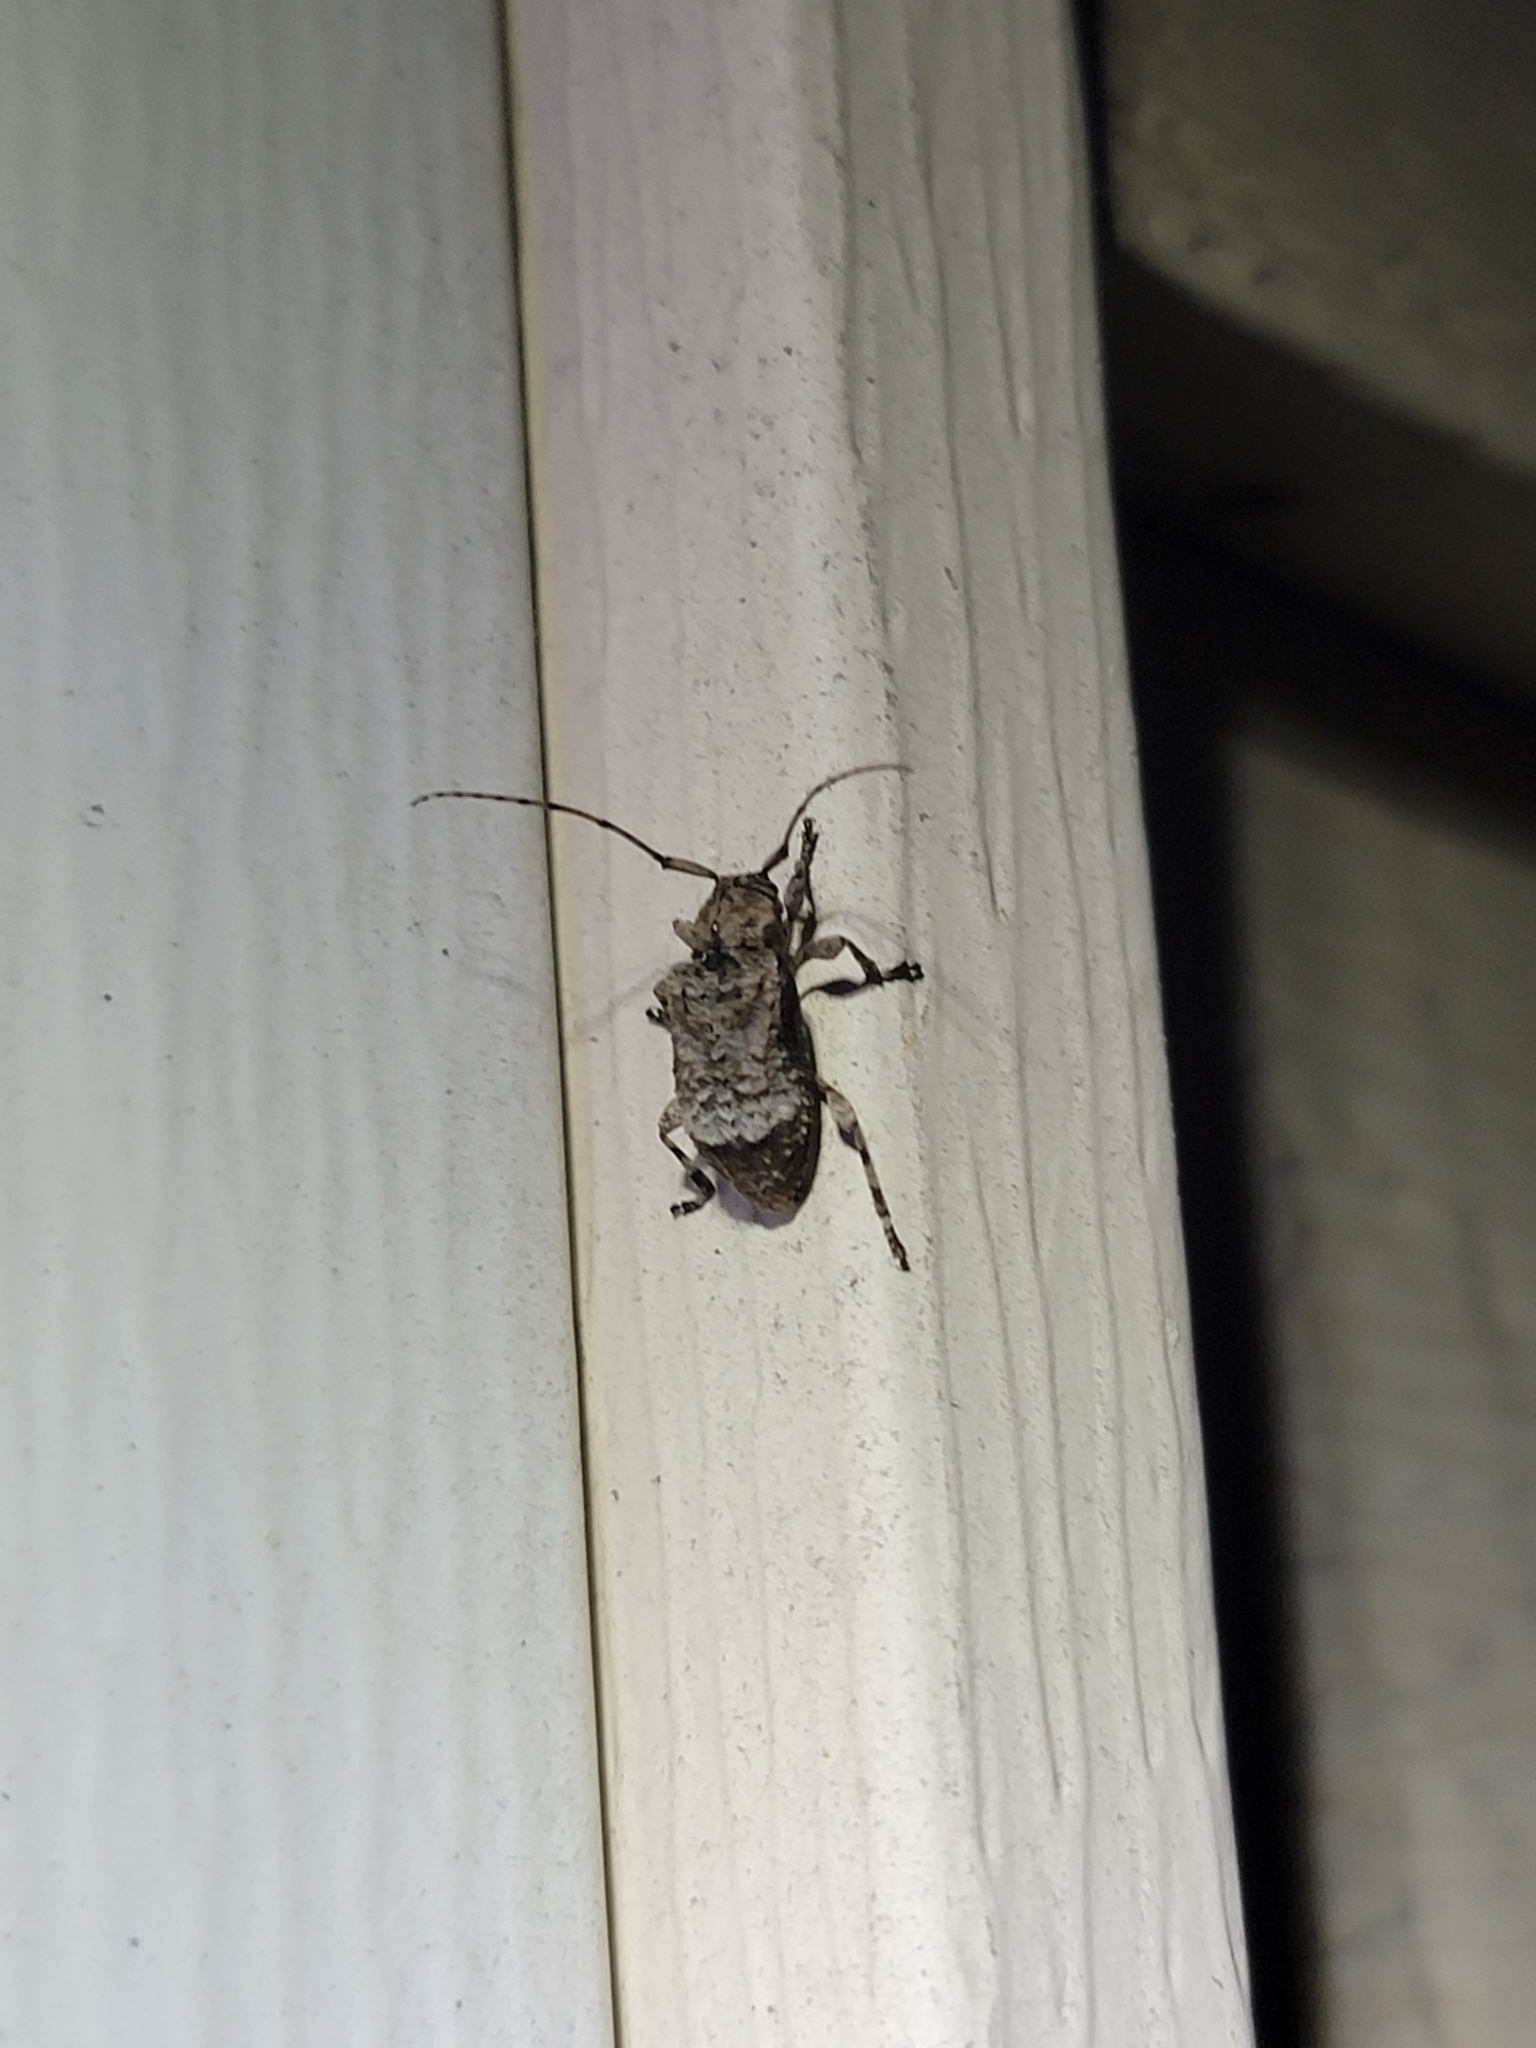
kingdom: Animalia
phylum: Arthropoda
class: Insecta
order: Coleoptera
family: Cerambycidae
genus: Leptostylus
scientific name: Leptostylus transversus
